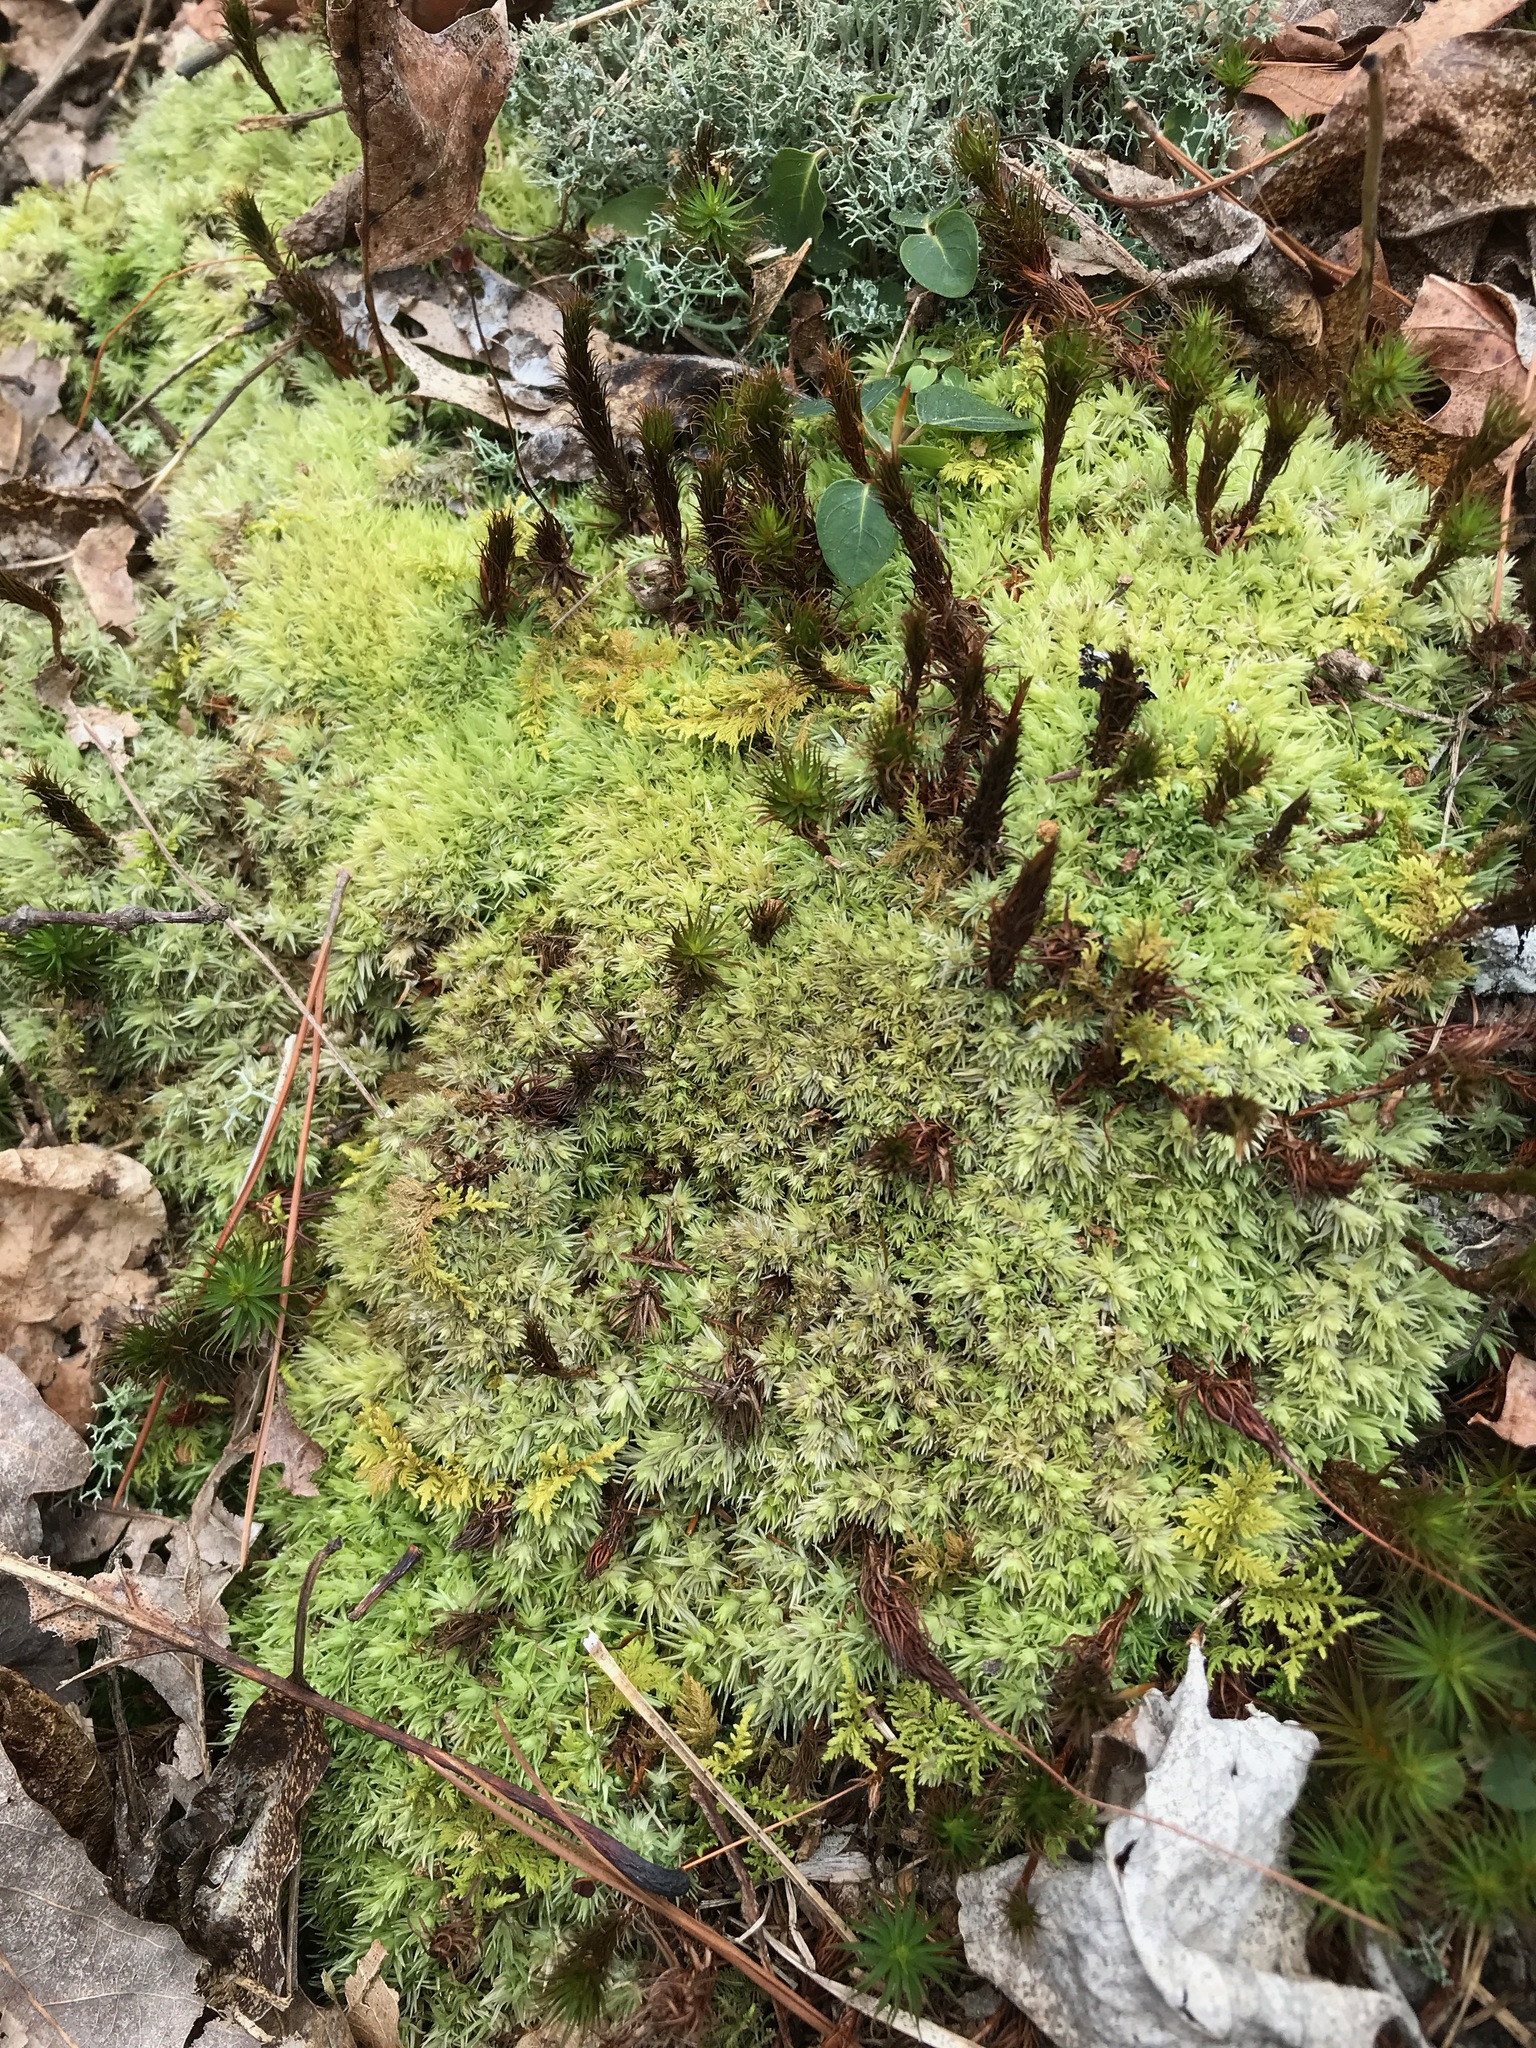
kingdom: Plantae
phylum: Bryophyta
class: Bryopsida
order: Dicranales
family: Leucobryaceae
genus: Leucobryum
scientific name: Leucobryum glaucum
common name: Large white-moss
